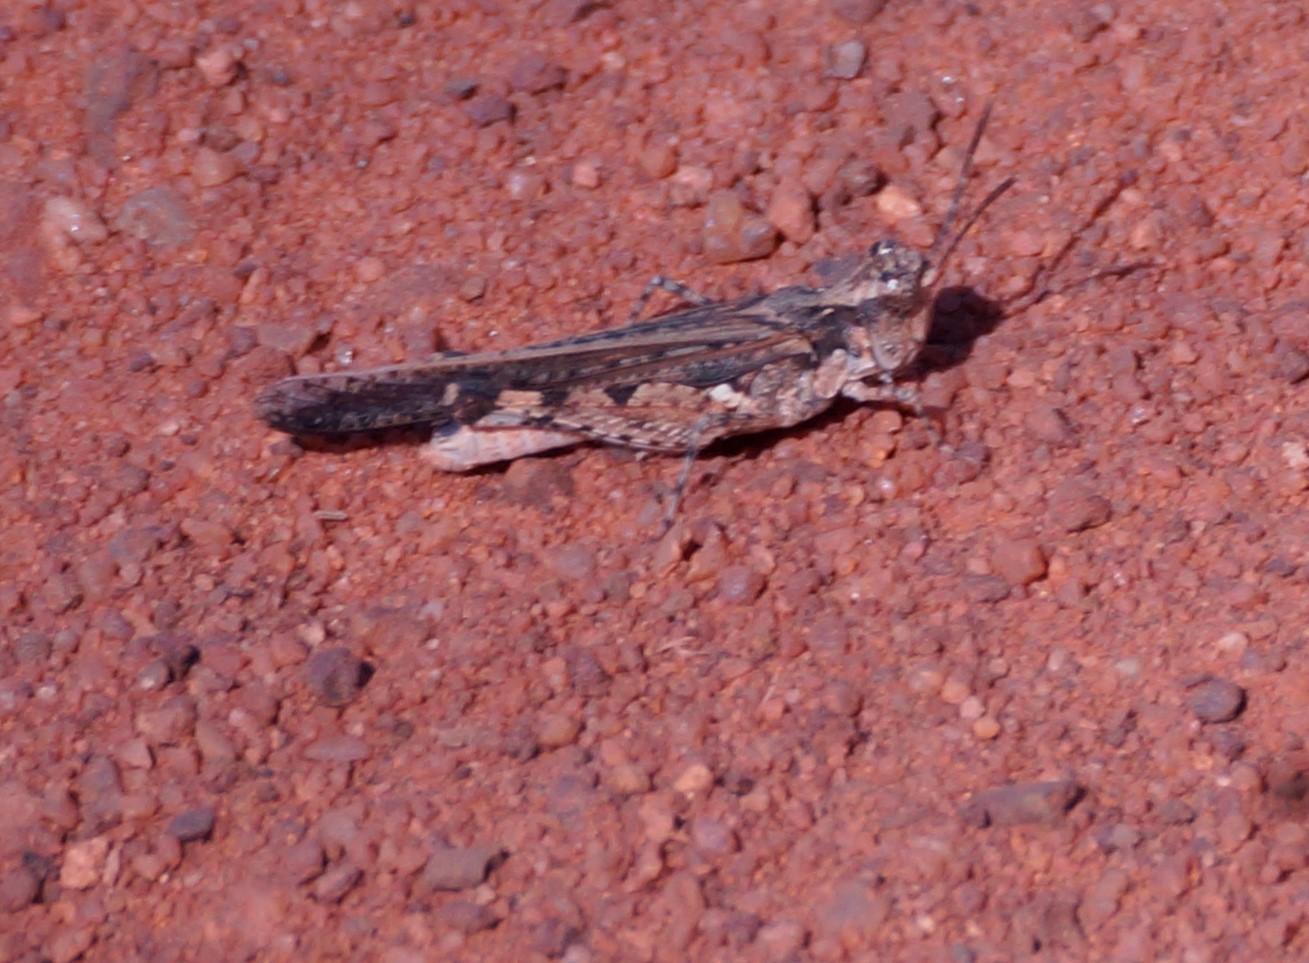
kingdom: Animalia
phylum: Arthropoda
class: Insecta
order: Orthoptera
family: Acrididae
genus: Pycnostictus
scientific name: Pycnostictus seriatus
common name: Common bandwing
